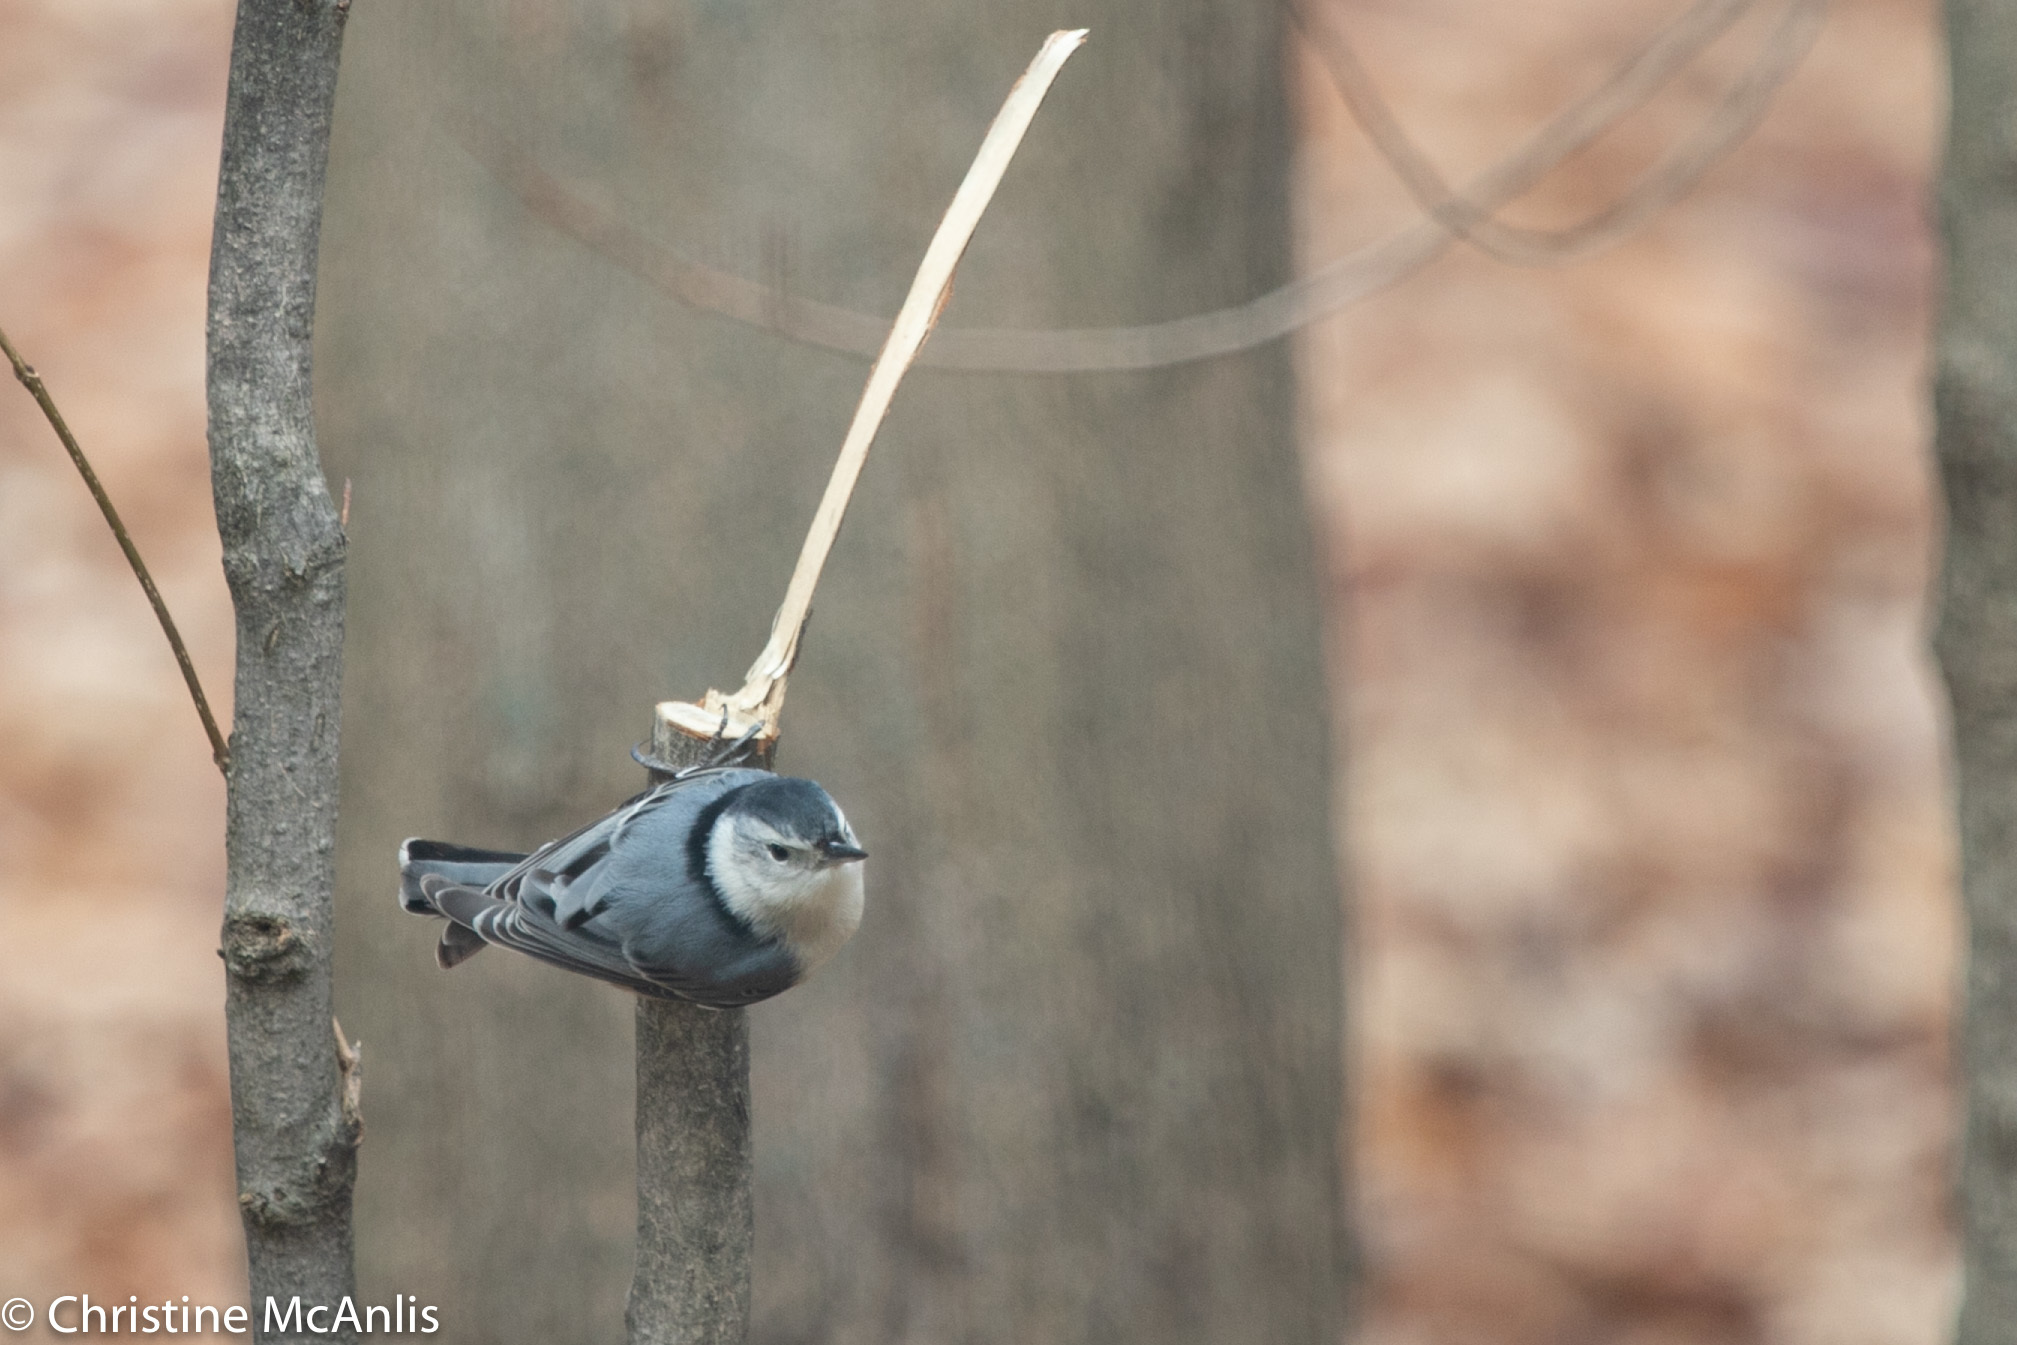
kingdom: Animalia
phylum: Chordata
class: Aves
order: Passeriformes
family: Sittidae
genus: Sitta
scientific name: Sitta carolinensis
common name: White-breasted nuthatch
